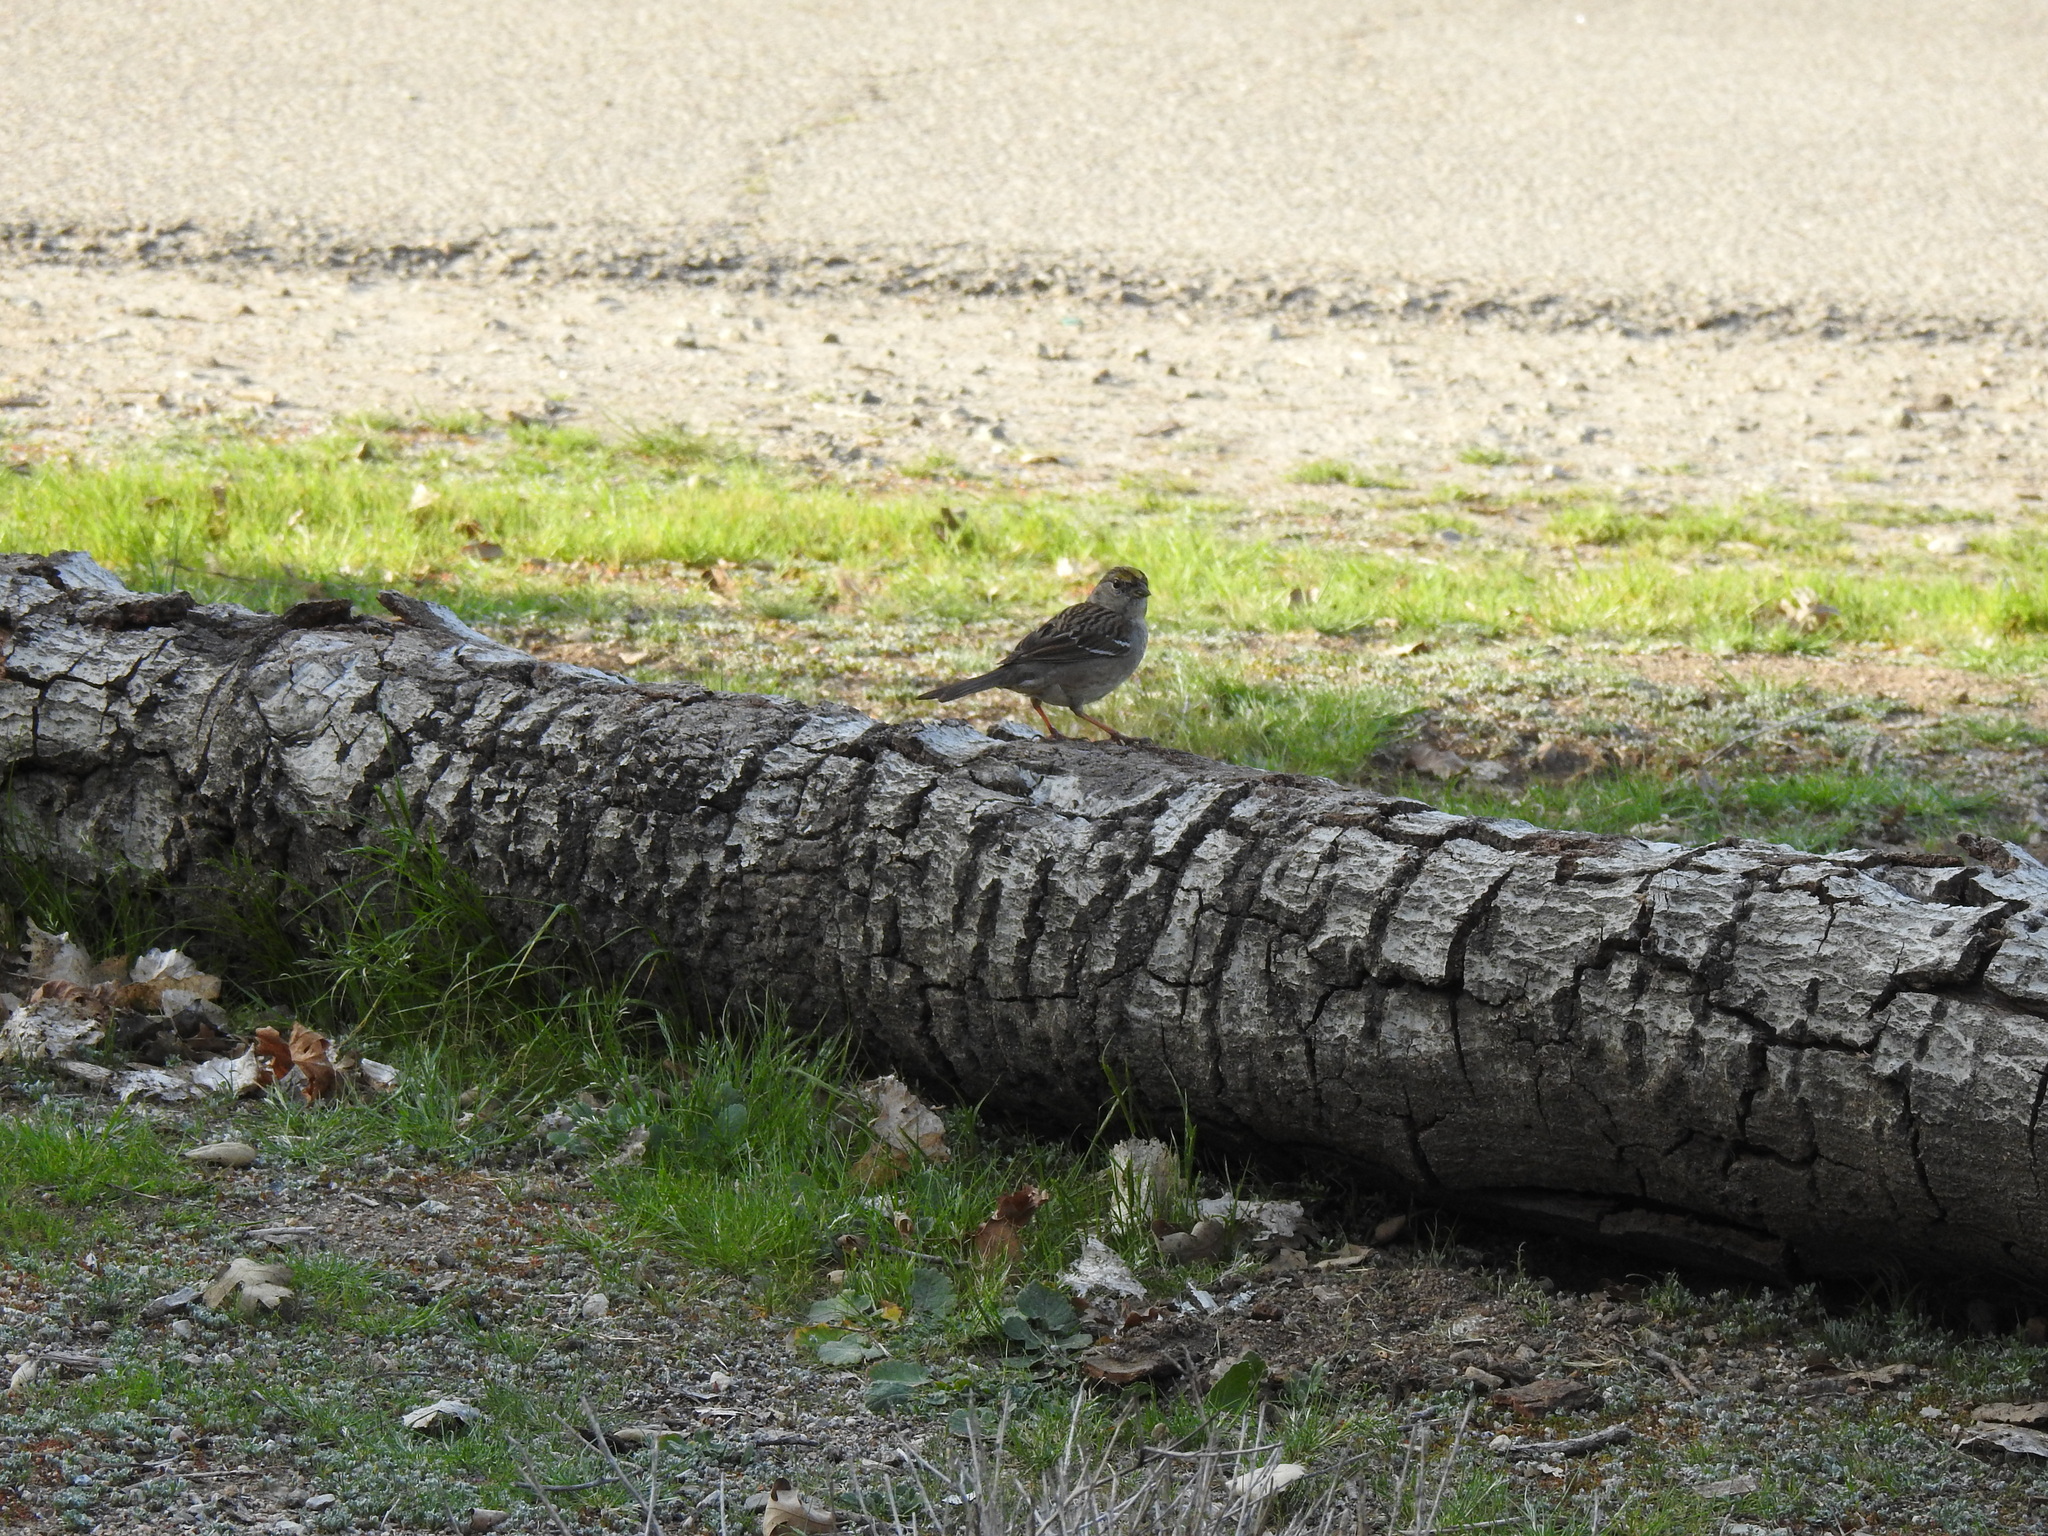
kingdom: Animalia
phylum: Chordata
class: Aves
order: Passeriformes
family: Passerellidae
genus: Zonotrichia
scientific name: Zonotrichia atricapilla
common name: Golden-crowned sparrow
